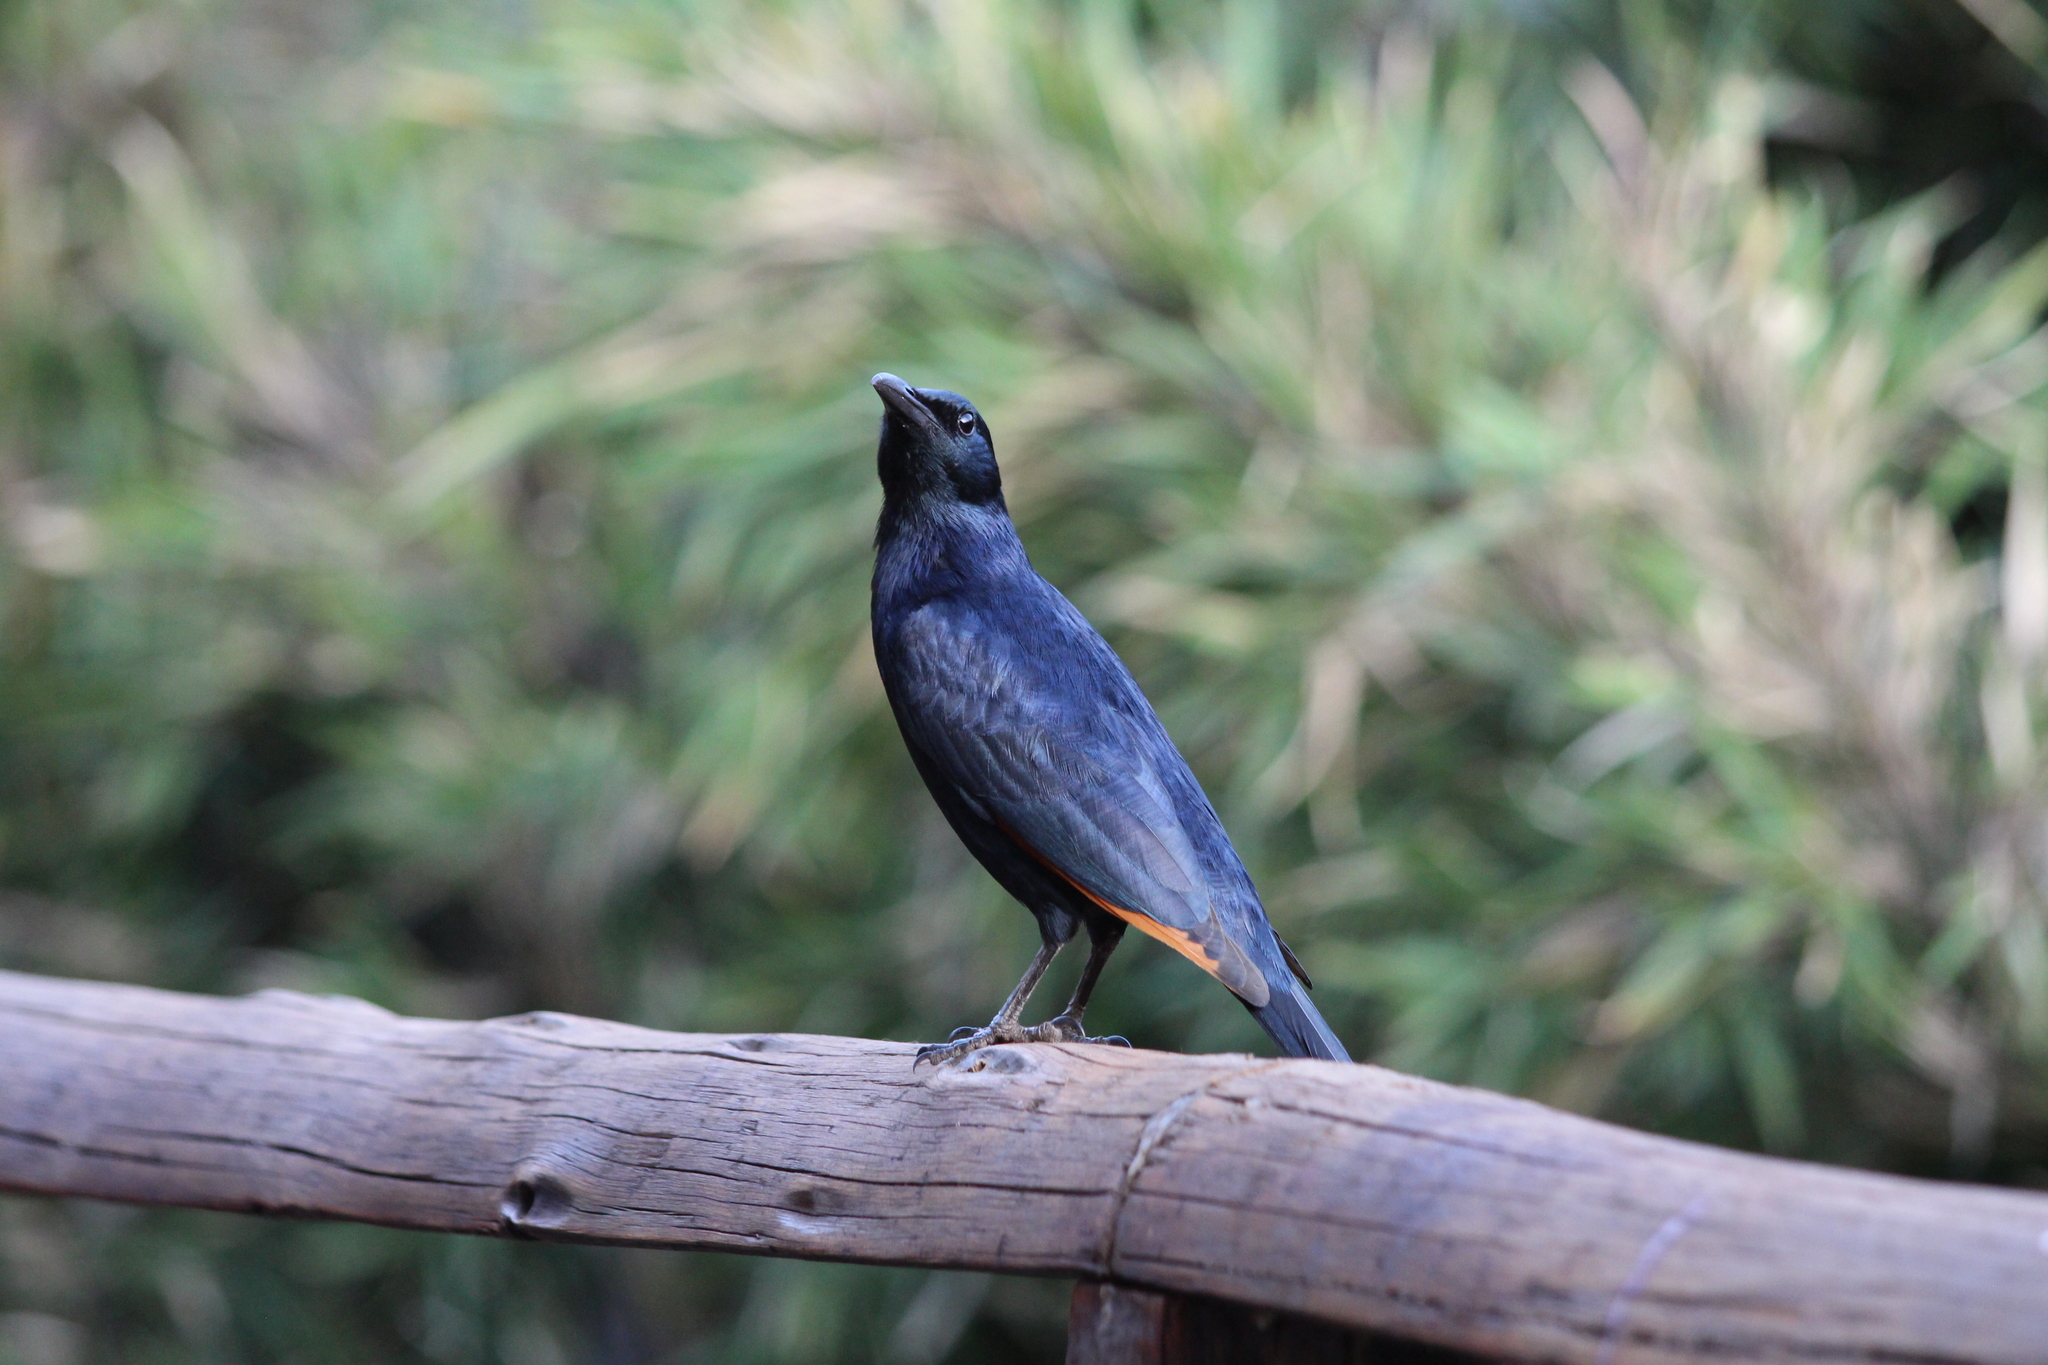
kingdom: Animalia
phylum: Chordata
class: Aves
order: Passeriformes
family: Sturnidae
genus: Onychognathus
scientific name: Onychognathus morio
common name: Red-winged starling
